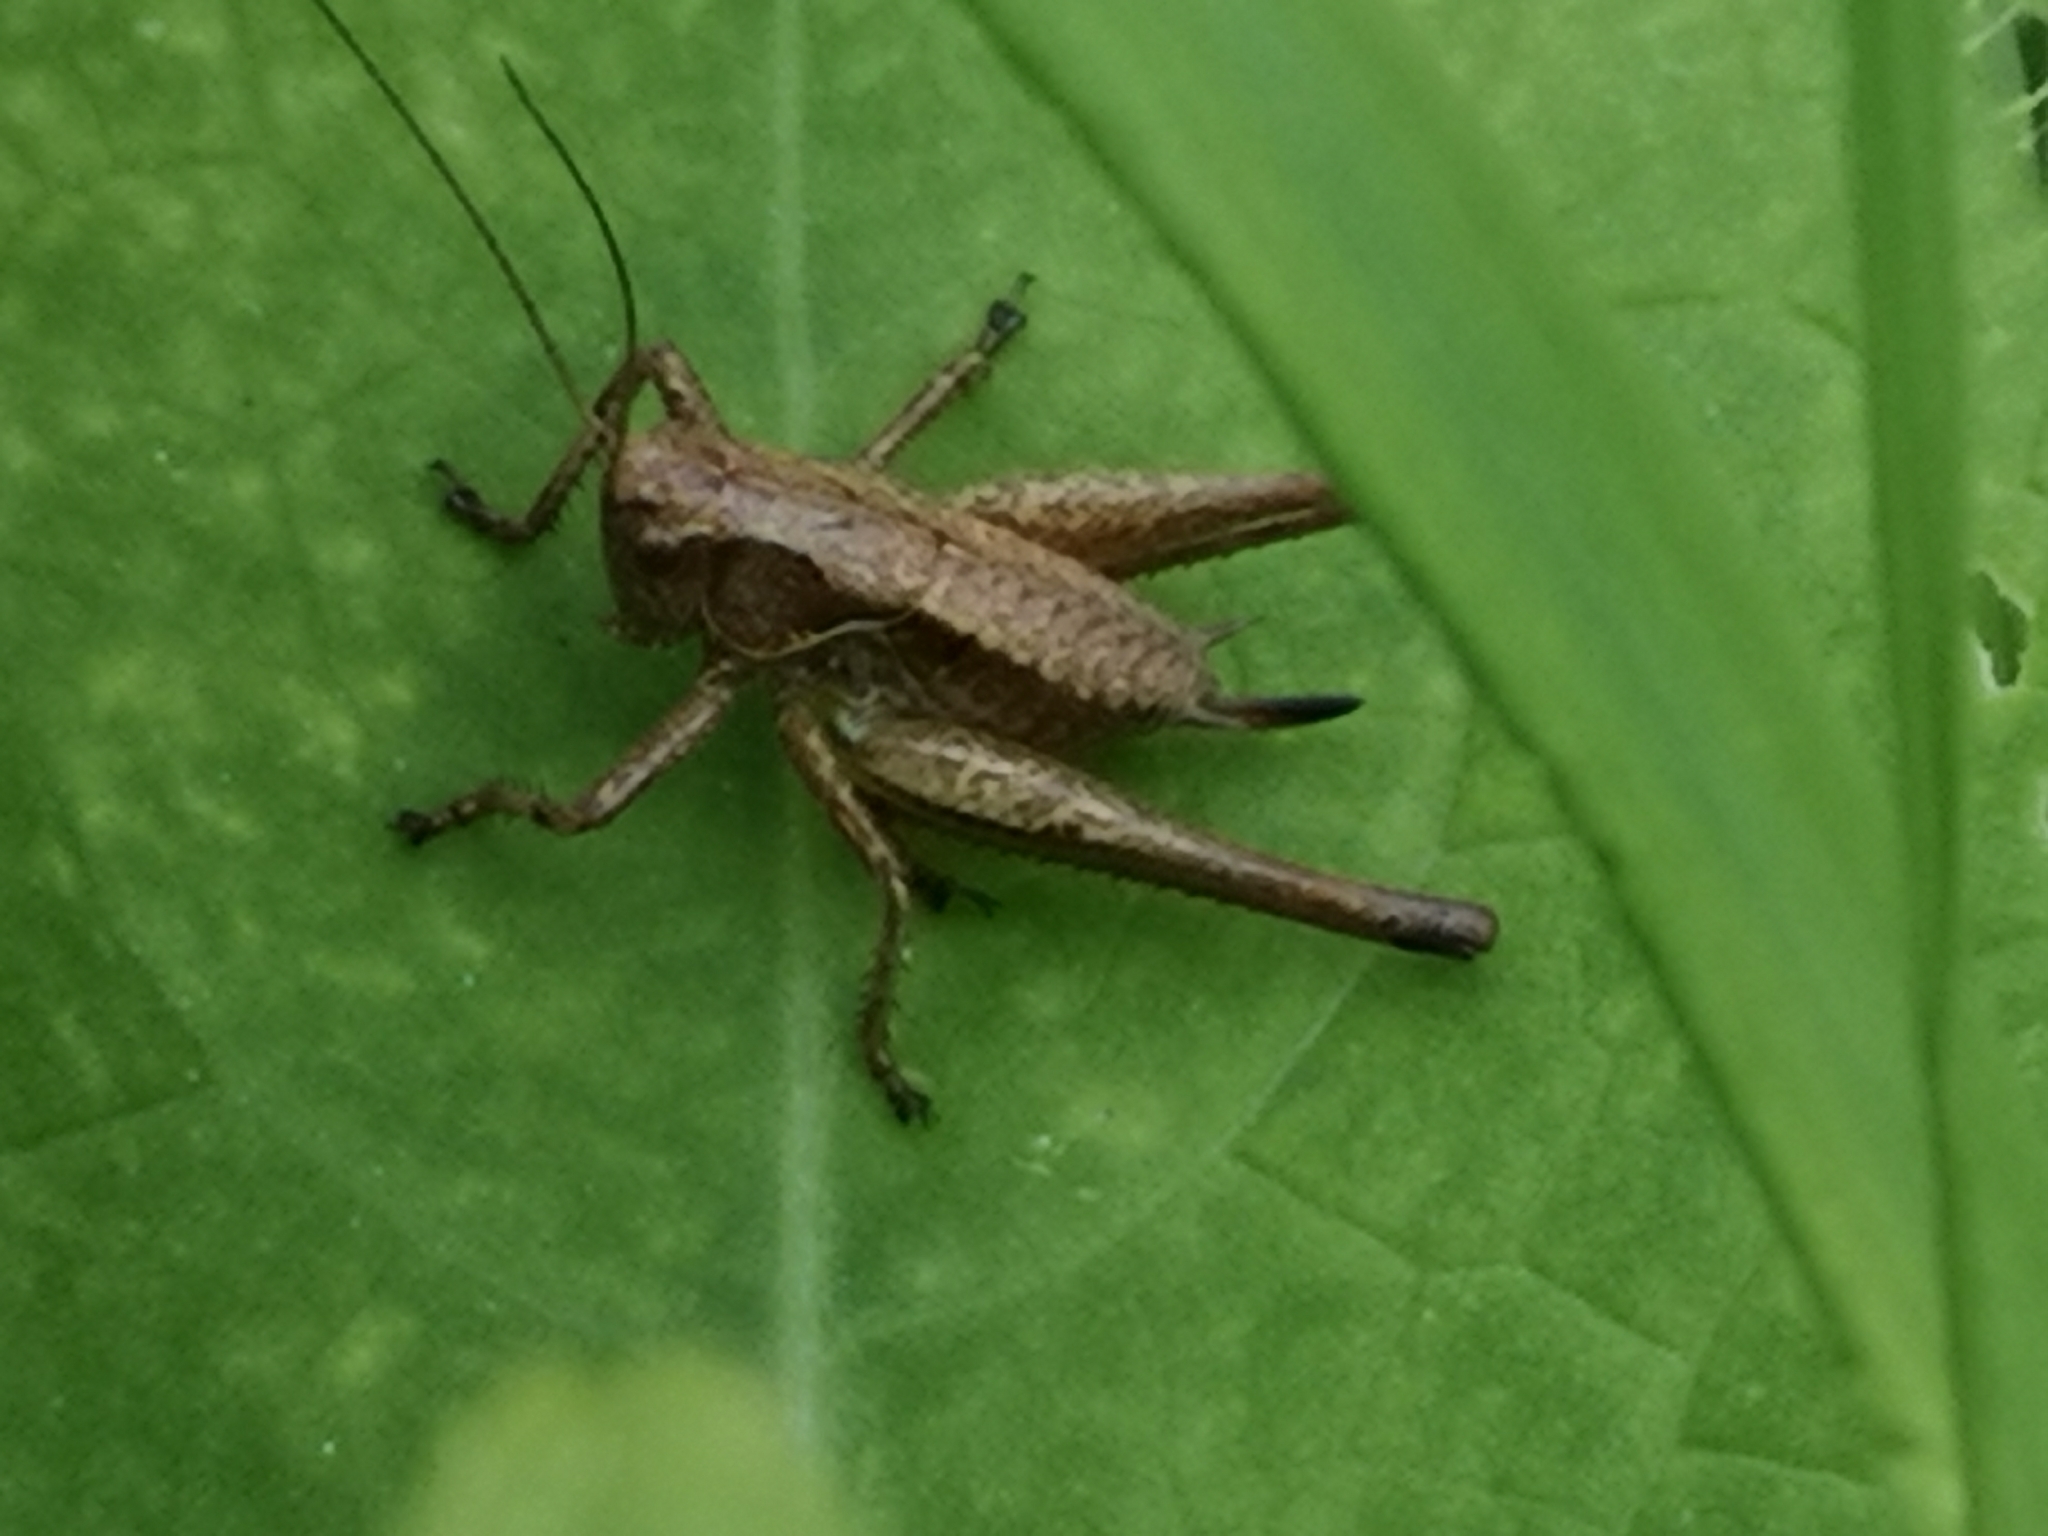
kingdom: Animalia
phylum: Arthropoda
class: Insecta
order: Orthoptera
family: Tettigoniidae
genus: Pholidoptera
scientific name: Pholidoptera griseoaptera
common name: Dark bush-cricket
